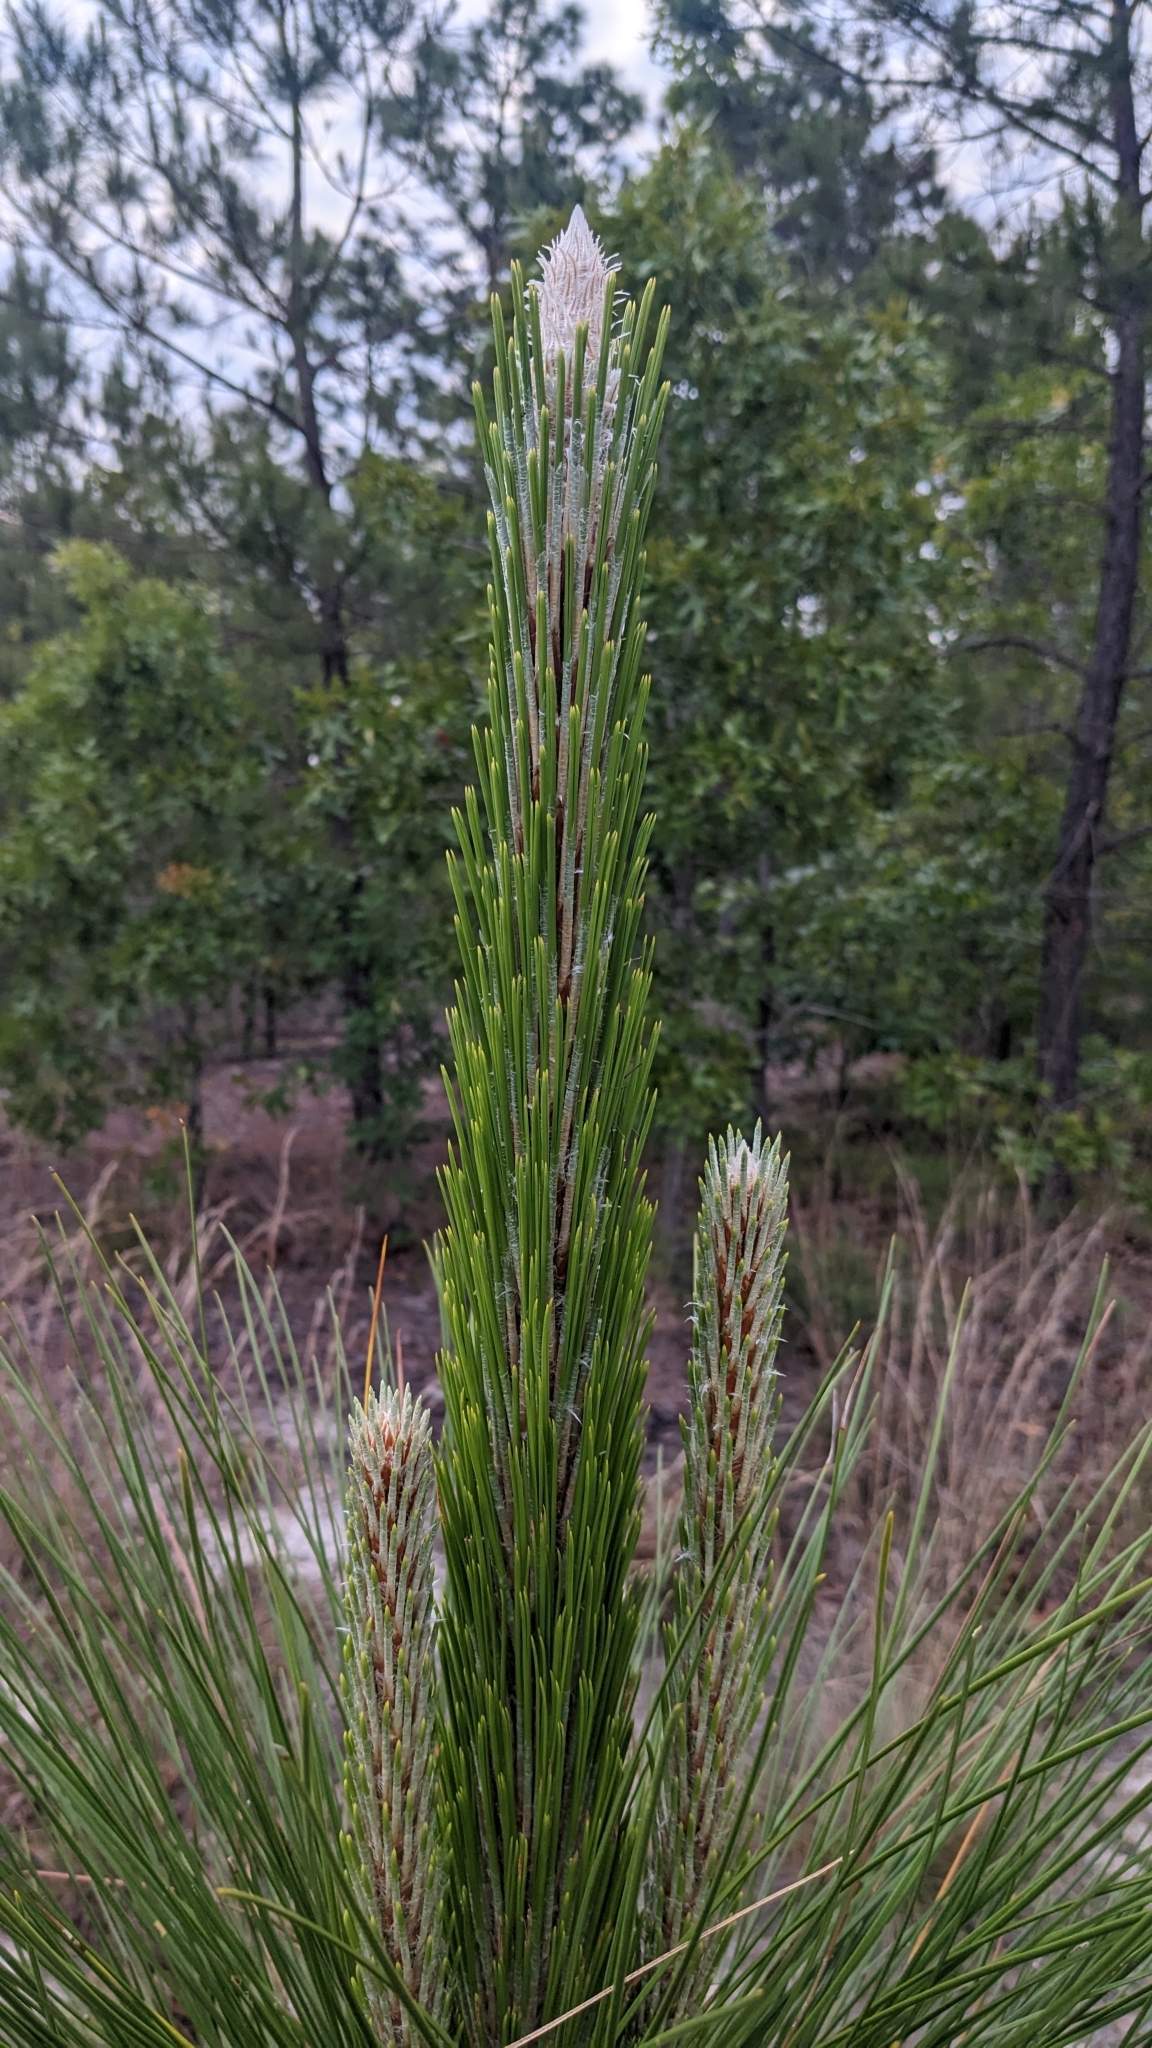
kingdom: Plantae
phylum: Tracheophyta
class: Pinopsida
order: Pinales
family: Pinaceae
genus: Pinus
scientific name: Pinus palustris
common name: Longleaf pine
